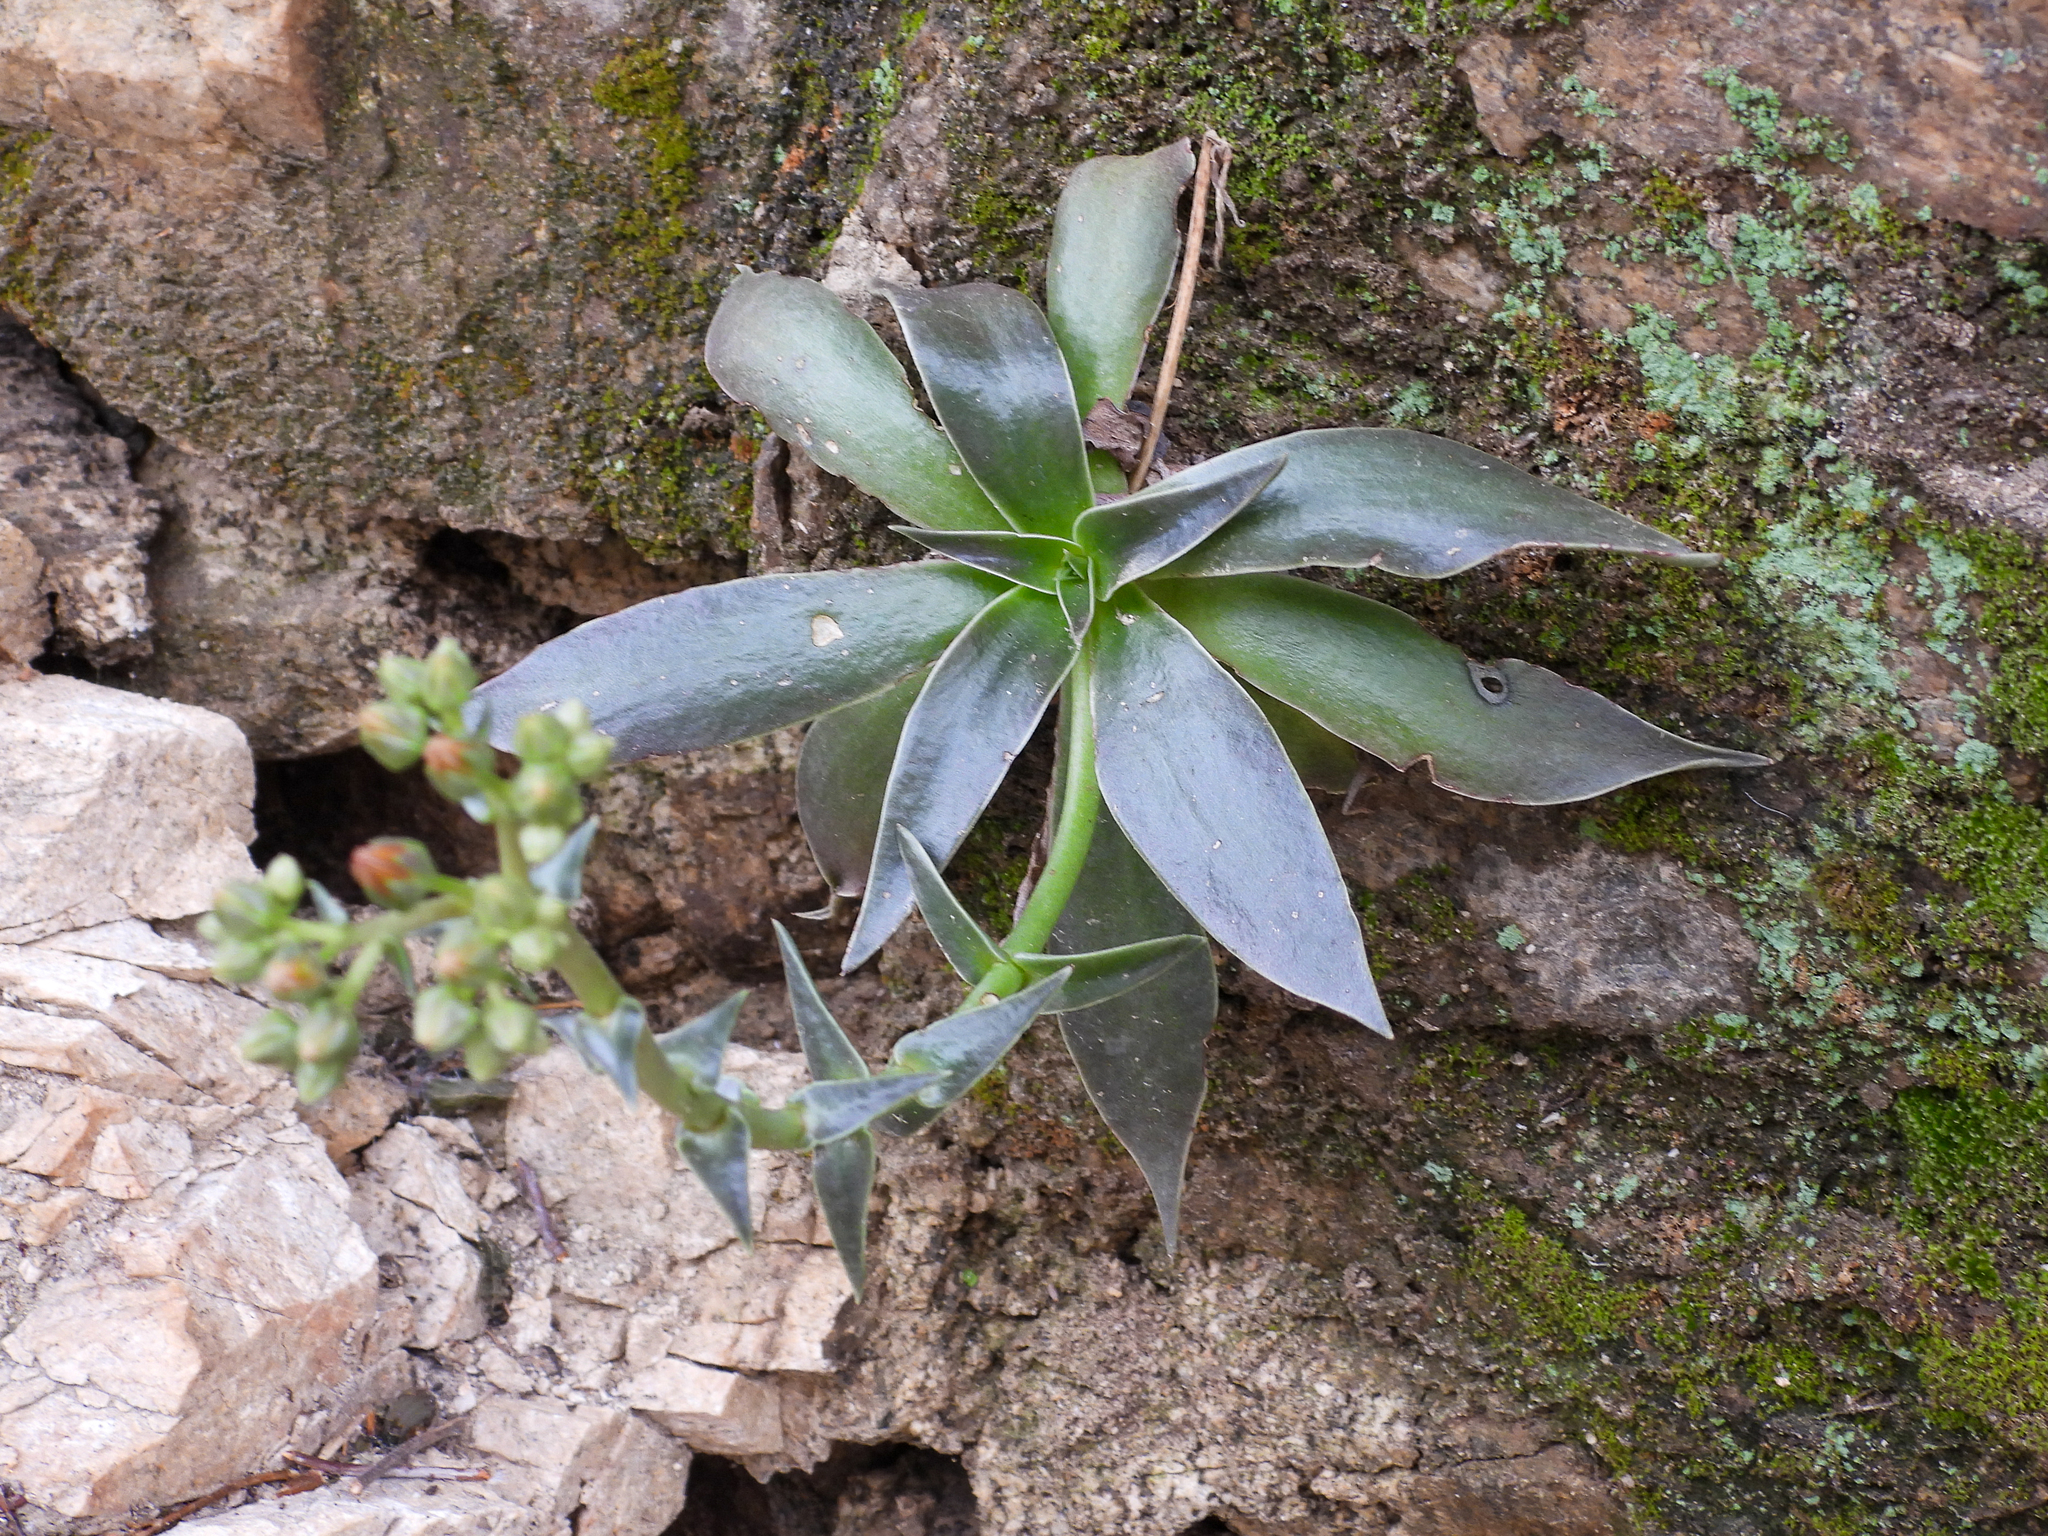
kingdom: Plantae
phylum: Tracheophyta
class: Magnoliopsida
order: Saxifragales
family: Crassulaceae
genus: Dudleya
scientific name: Dudleya lanceolata
